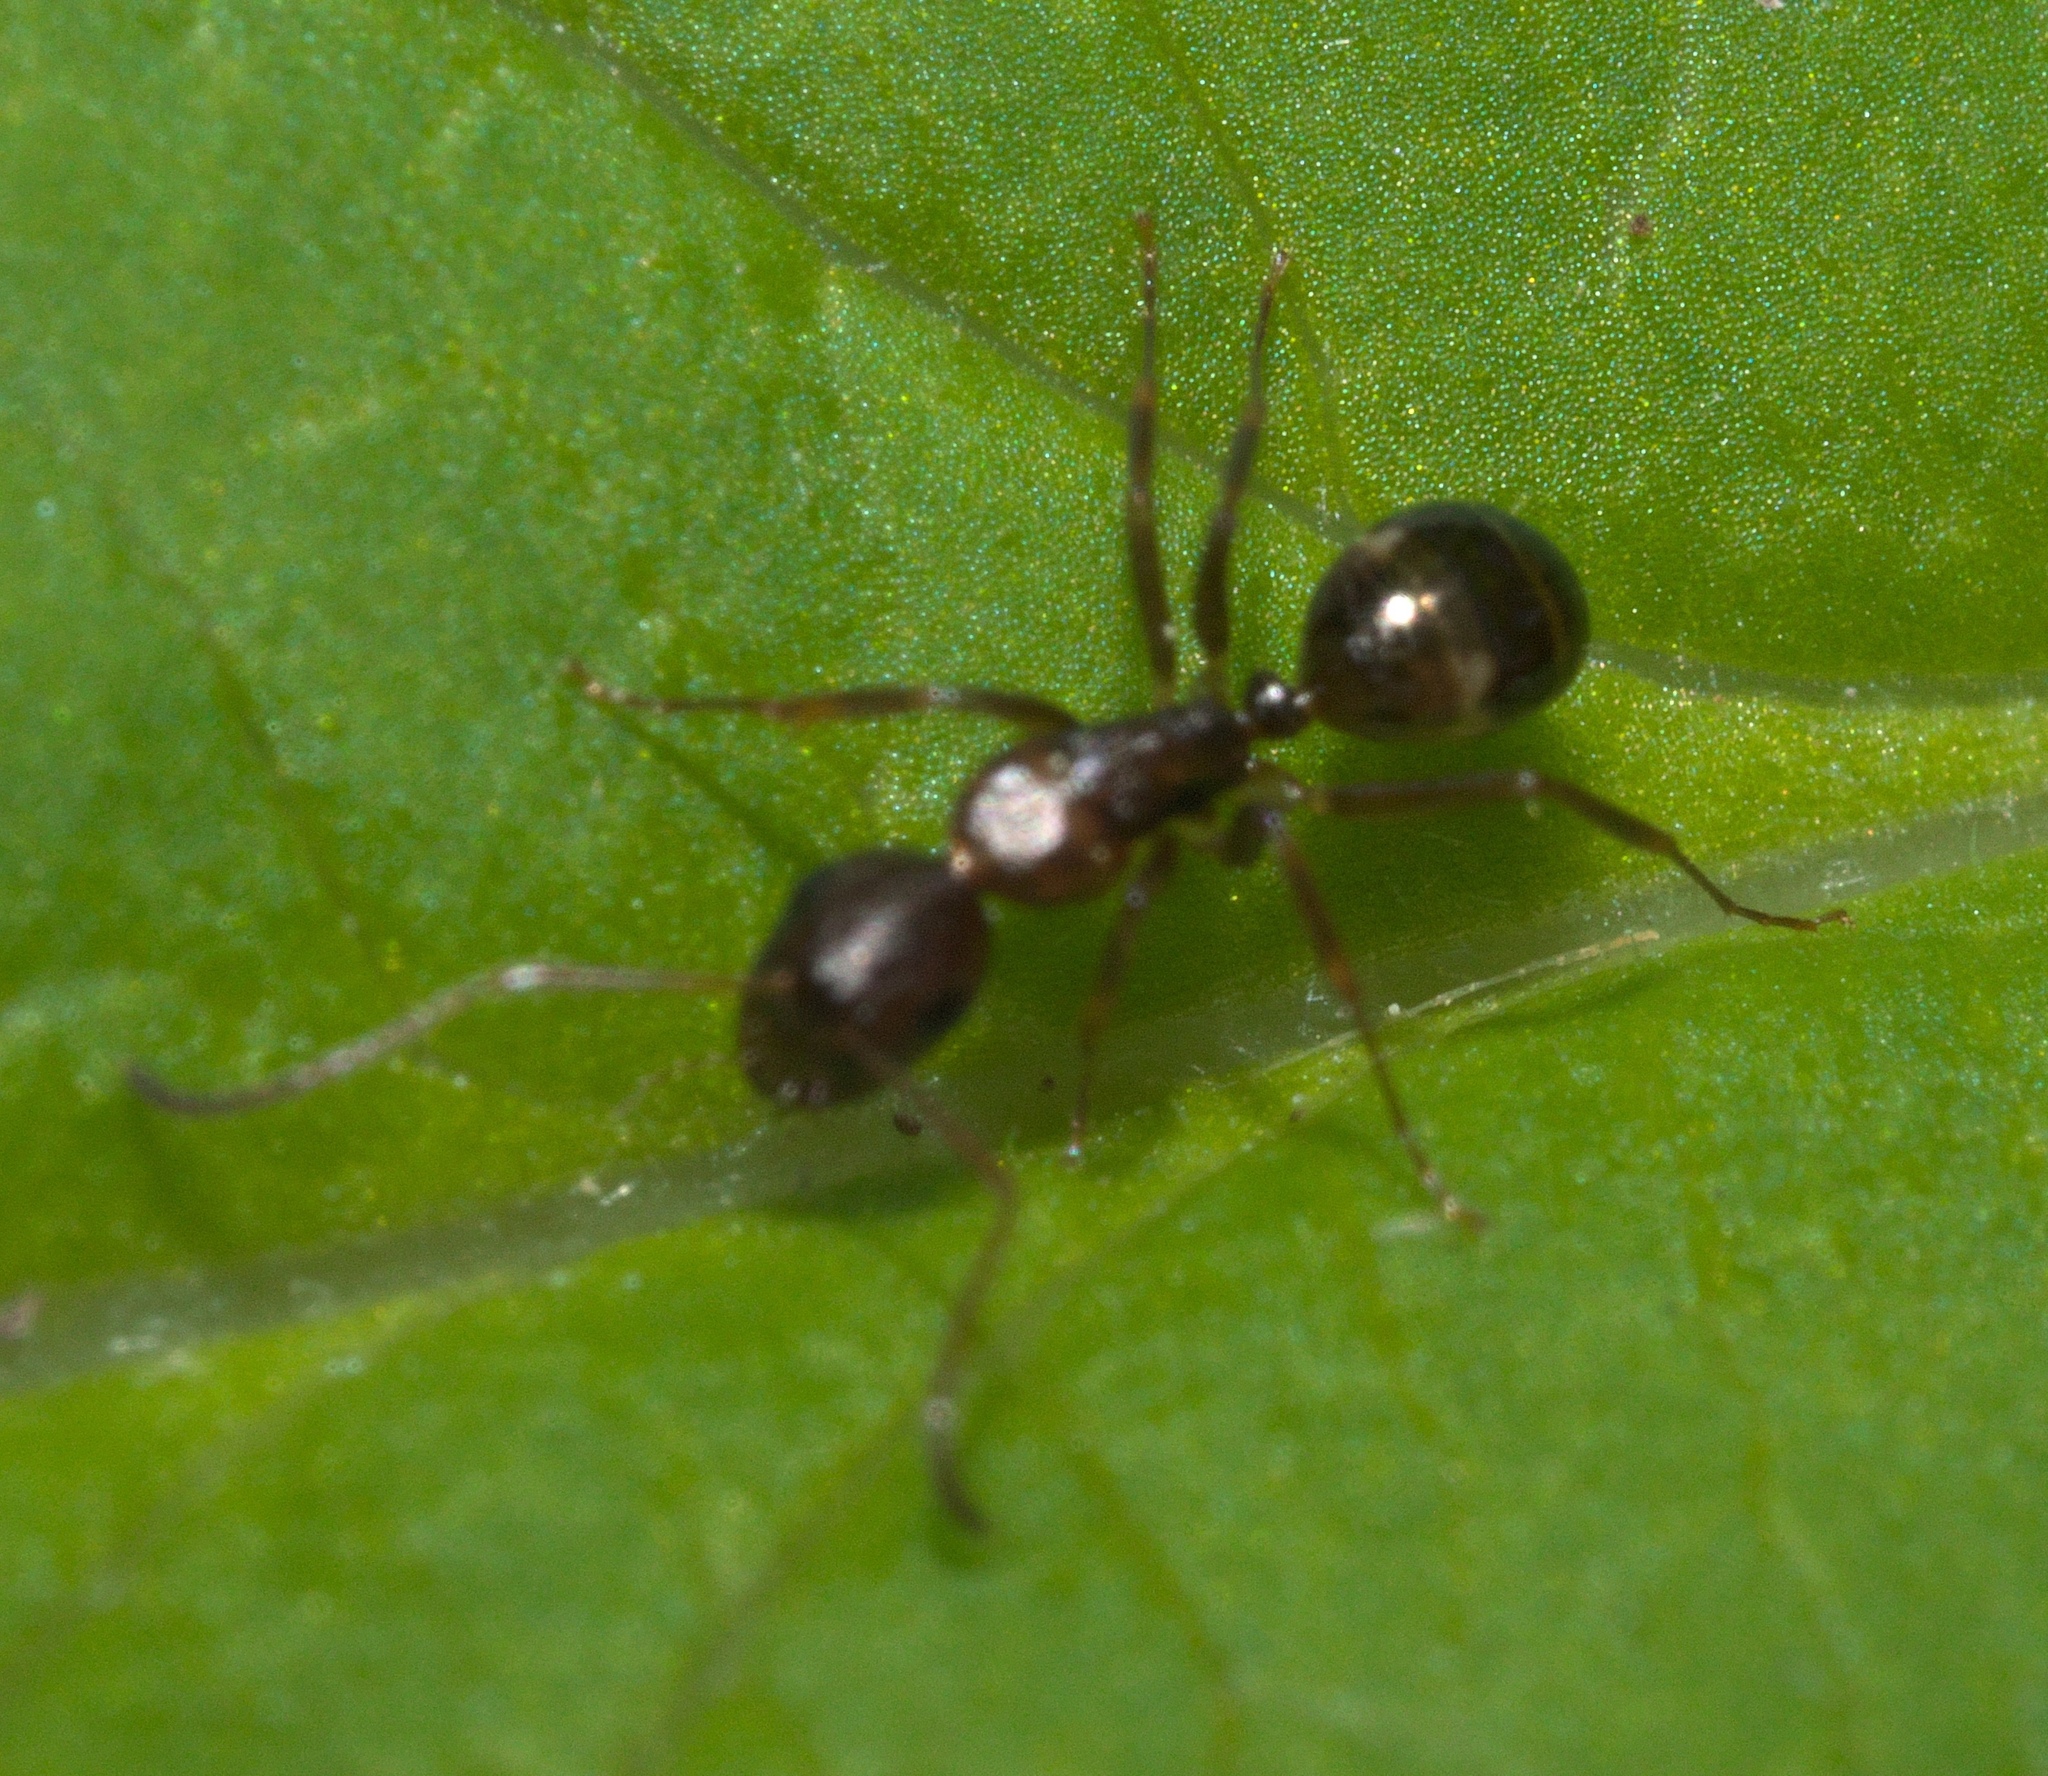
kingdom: Animalia
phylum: Arthropoda
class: Insecta
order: Hymenoptera
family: Formicidae
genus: Camponotus
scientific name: Camponotus subbarbatus
